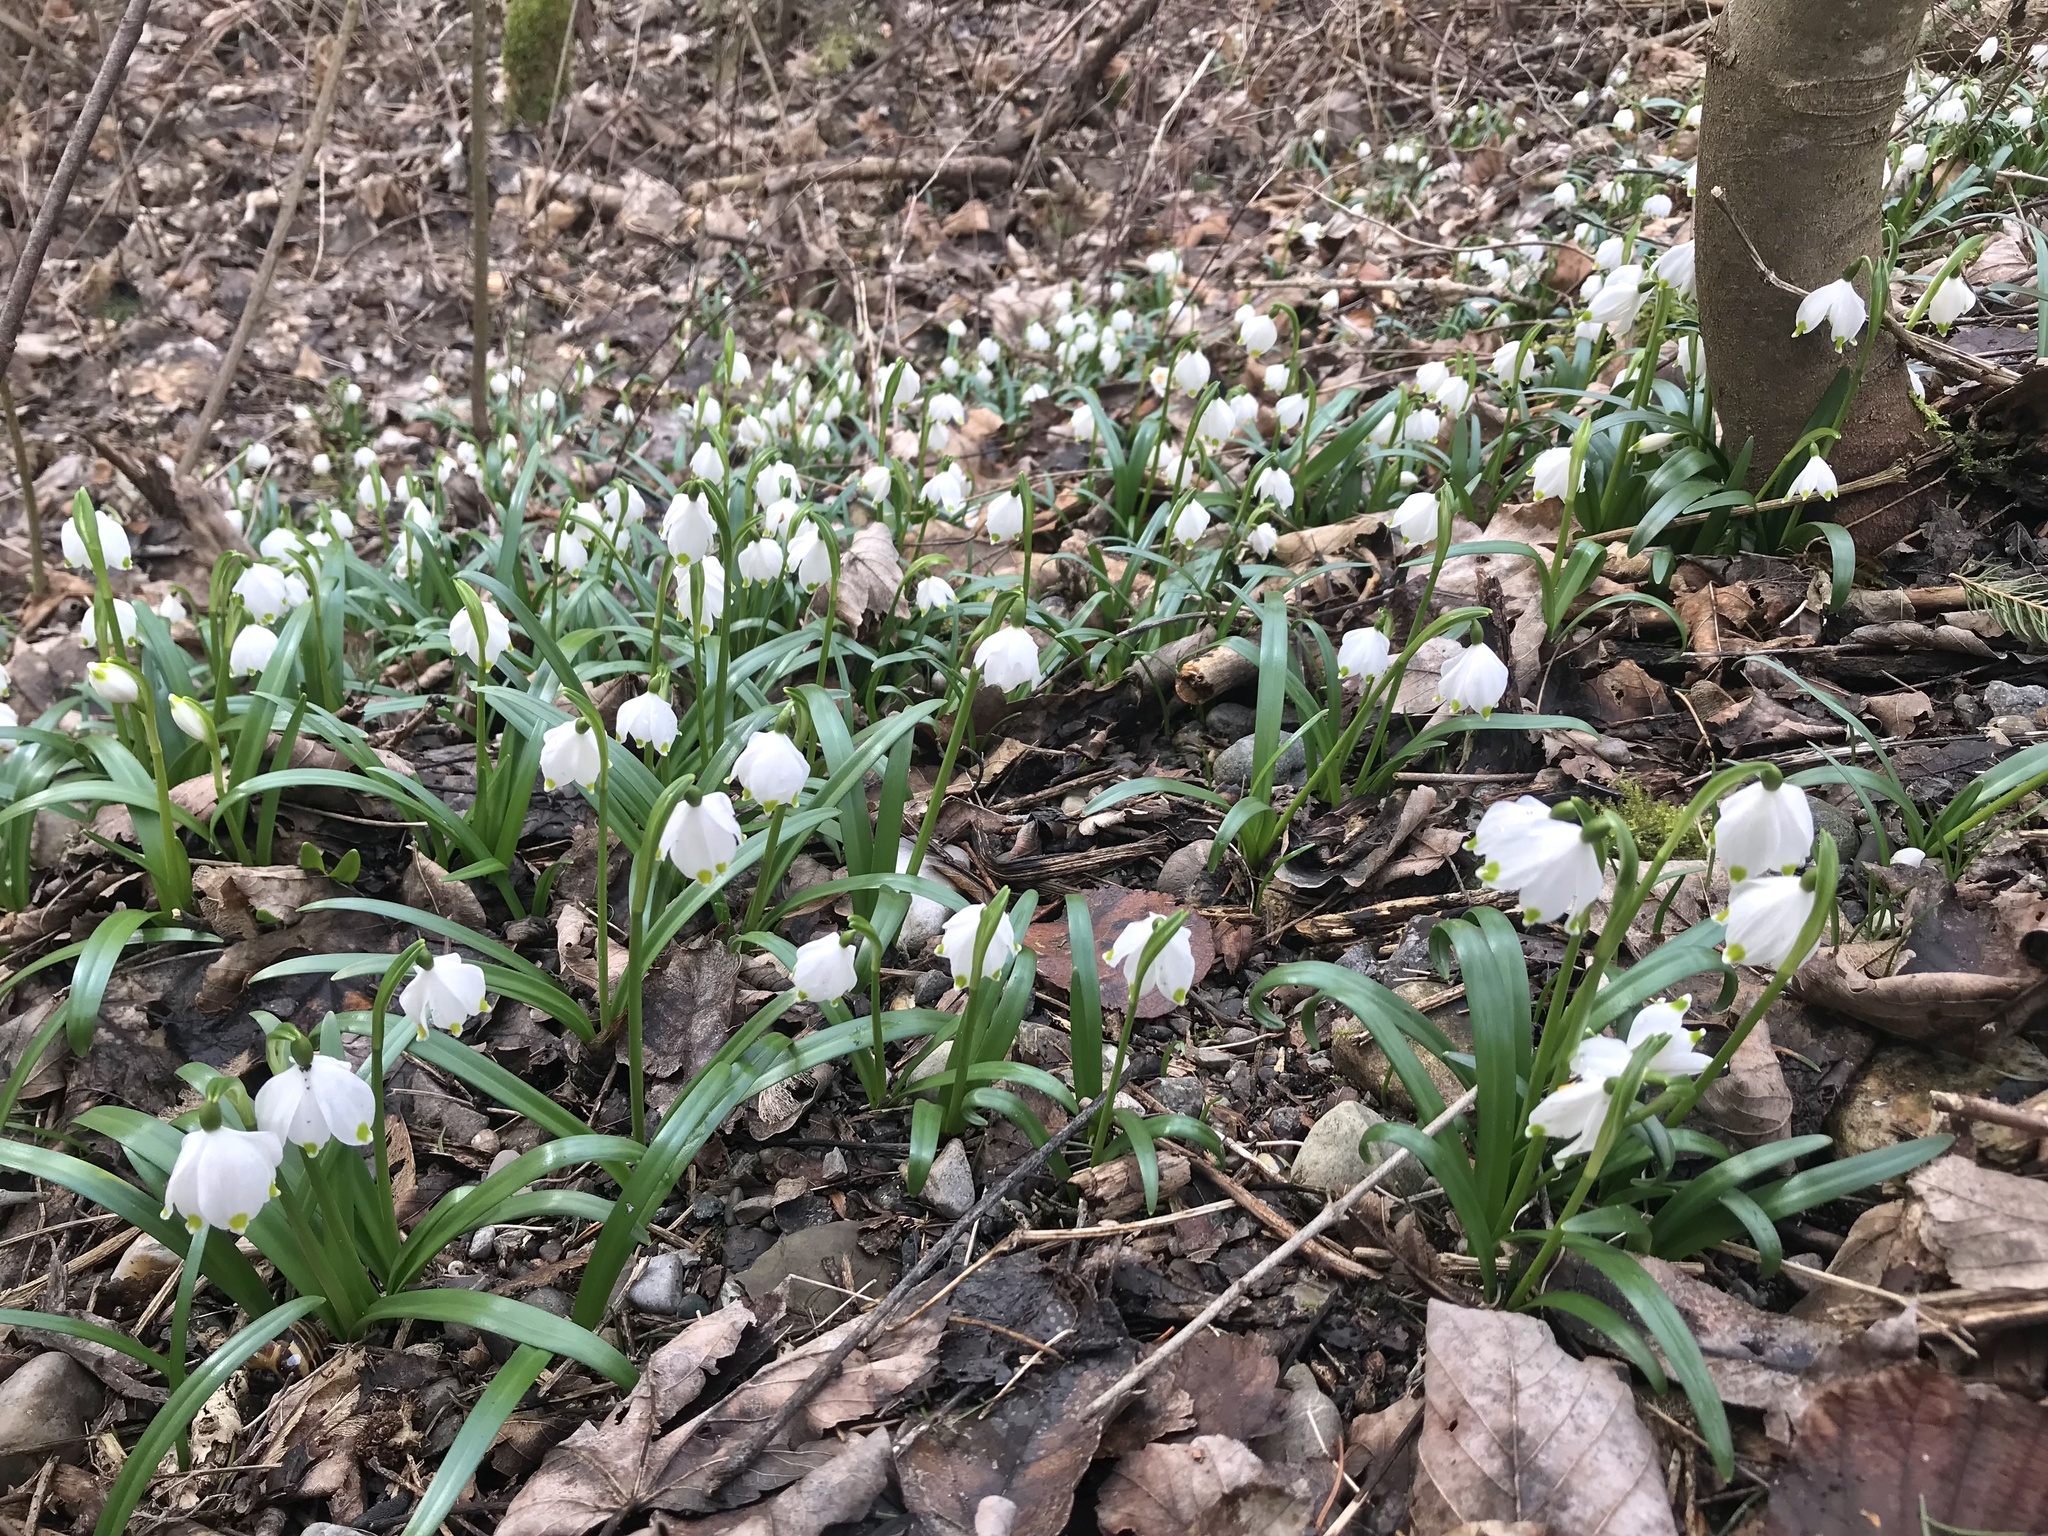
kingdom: Plantae
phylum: Tracheophyta
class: Liliopsida
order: Asparagales
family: Amaryllidaceae
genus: Leucojum
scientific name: Leucojum vernum
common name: Spring snowflake
